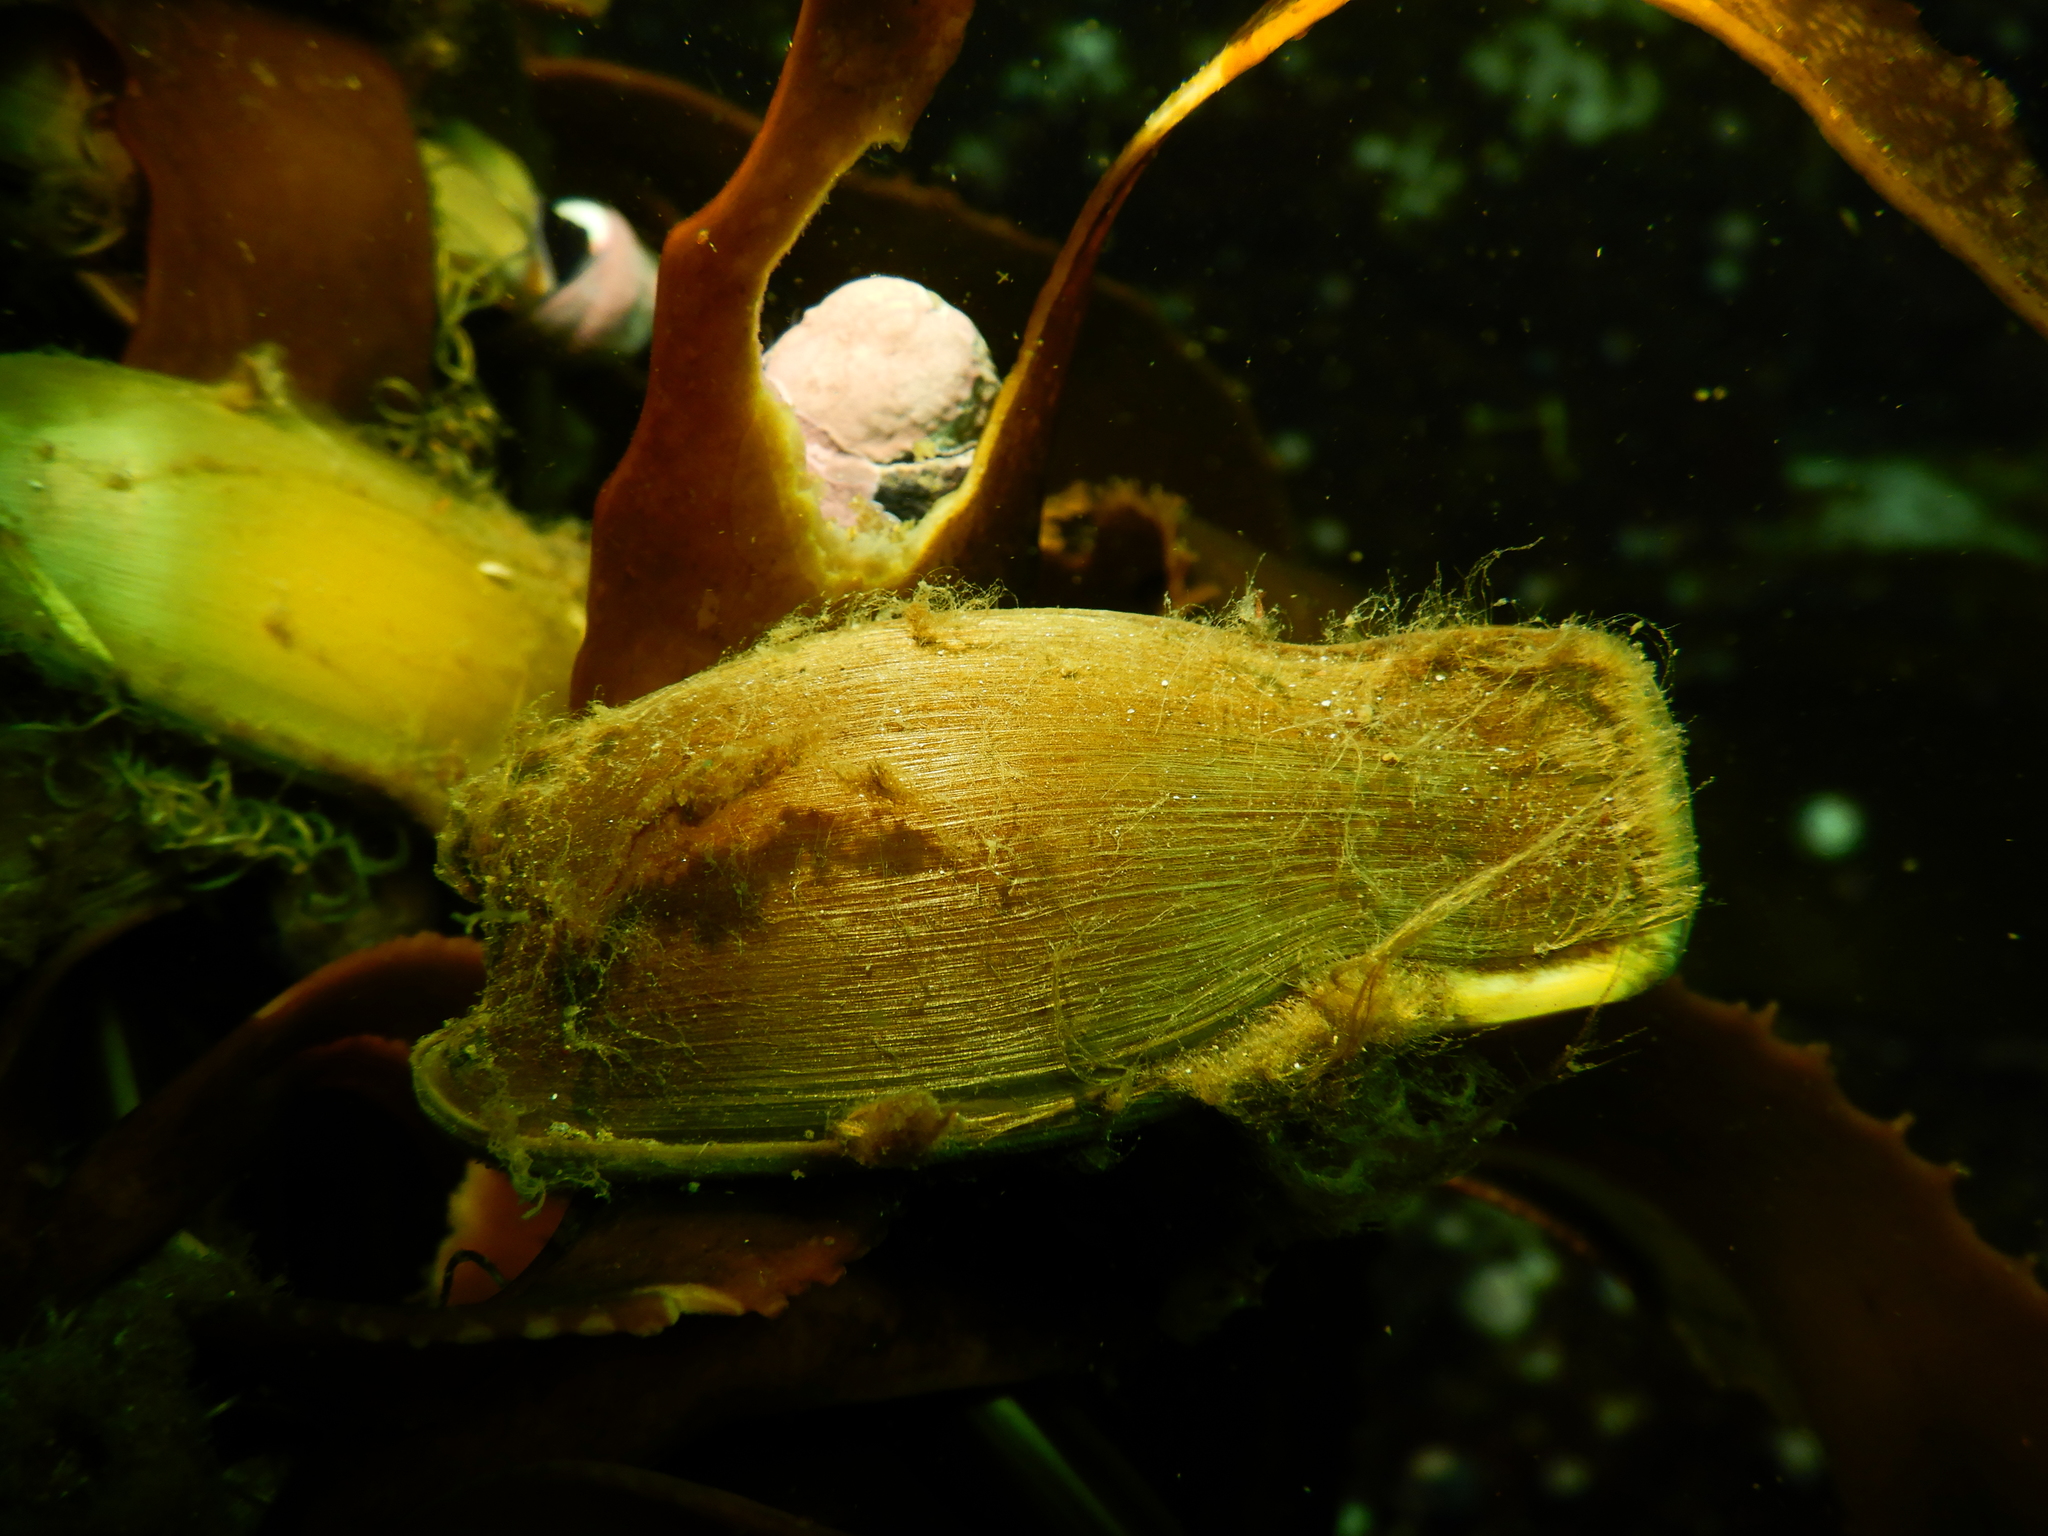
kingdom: Animalia
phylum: Chordata
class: Elasmobranchii
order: Carcharhiniformes
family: Scyliorhinidae
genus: Schroederichthys
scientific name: Schroederichthys chilensis
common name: Redspotted catshark
